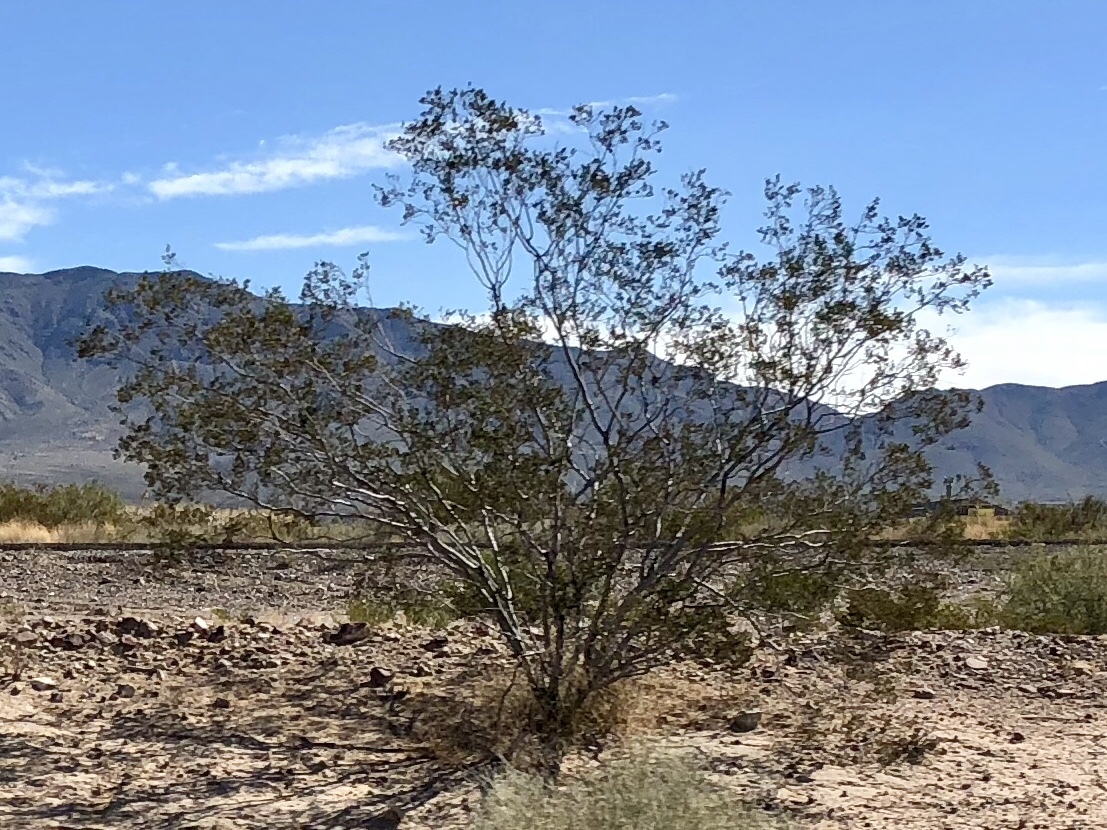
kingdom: Plantae
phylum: Tracheophyta
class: Magnoliopsida
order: Zygophyllales
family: Zygophyllaceae
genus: Larrea
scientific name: Larrea tridentata
